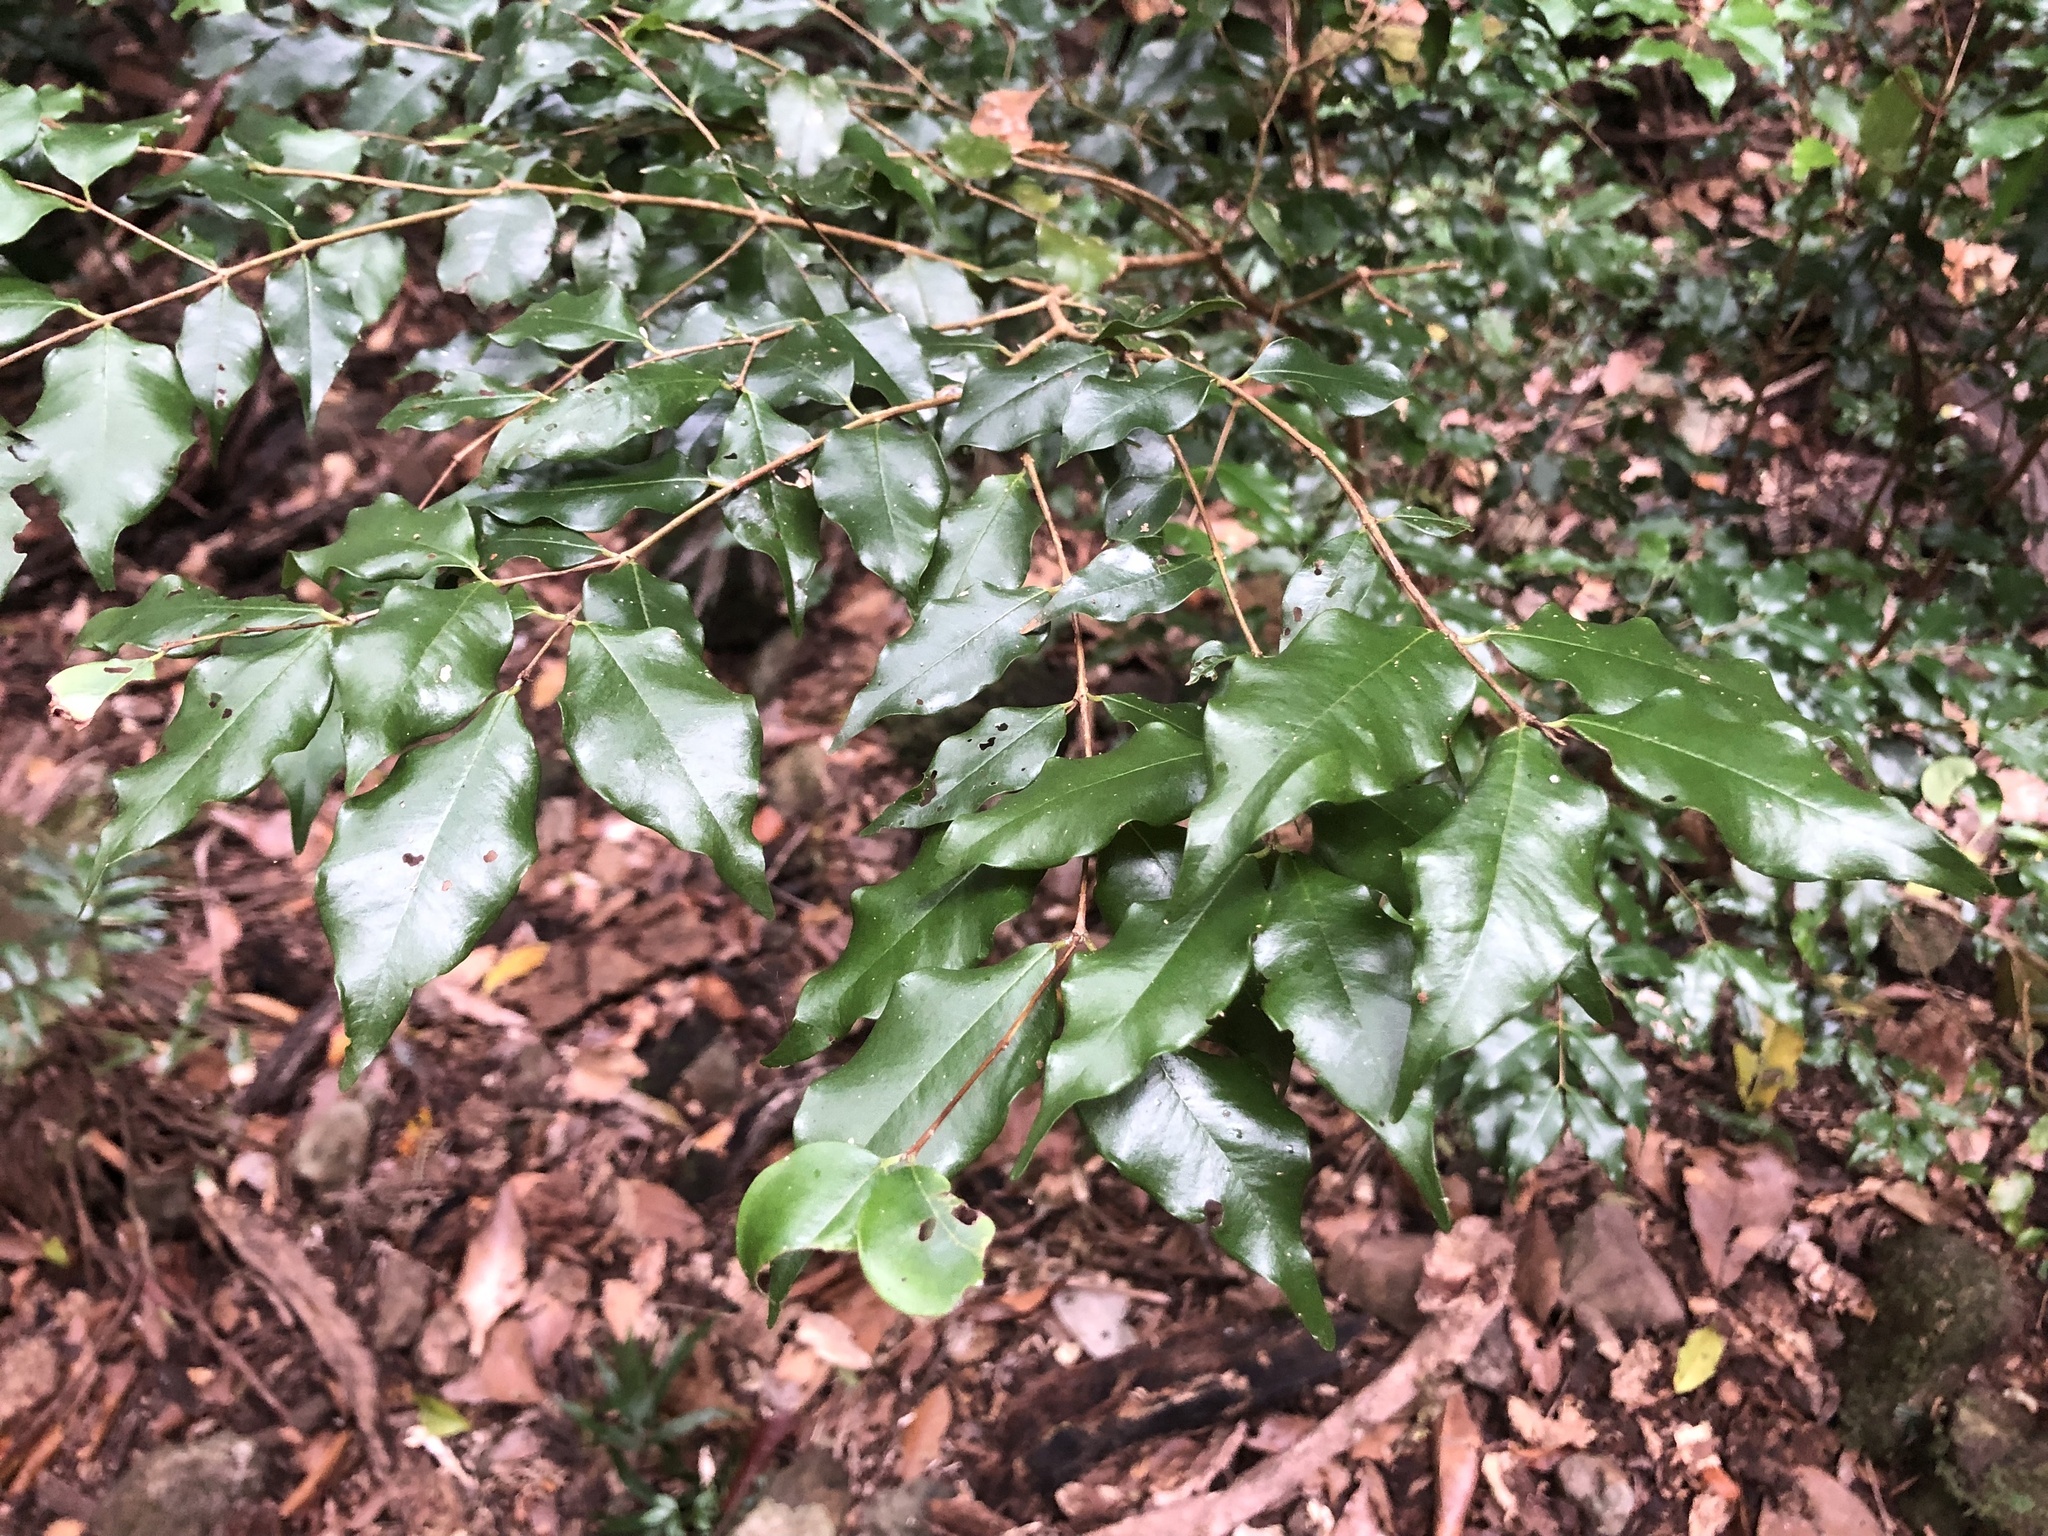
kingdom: Plantae
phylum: Tracheophyta
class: Magnoliopsida
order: Myrtales
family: Myrtaceae
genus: Syzygium
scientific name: Syzygium francisii
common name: Giant water-gum
